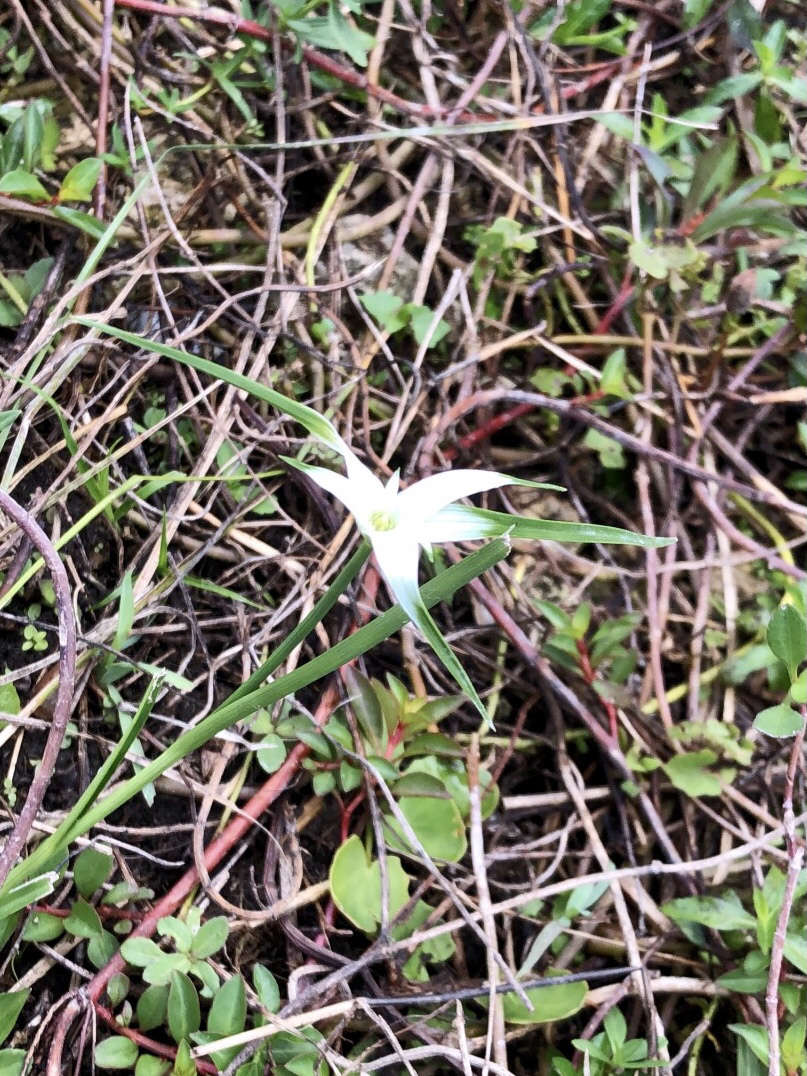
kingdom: Plantae
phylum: Tracheophyta
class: Liliopsida
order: Poales
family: Cyperaceae
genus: Rhynchospora
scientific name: Rhynchospora colorata
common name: Star sedge
